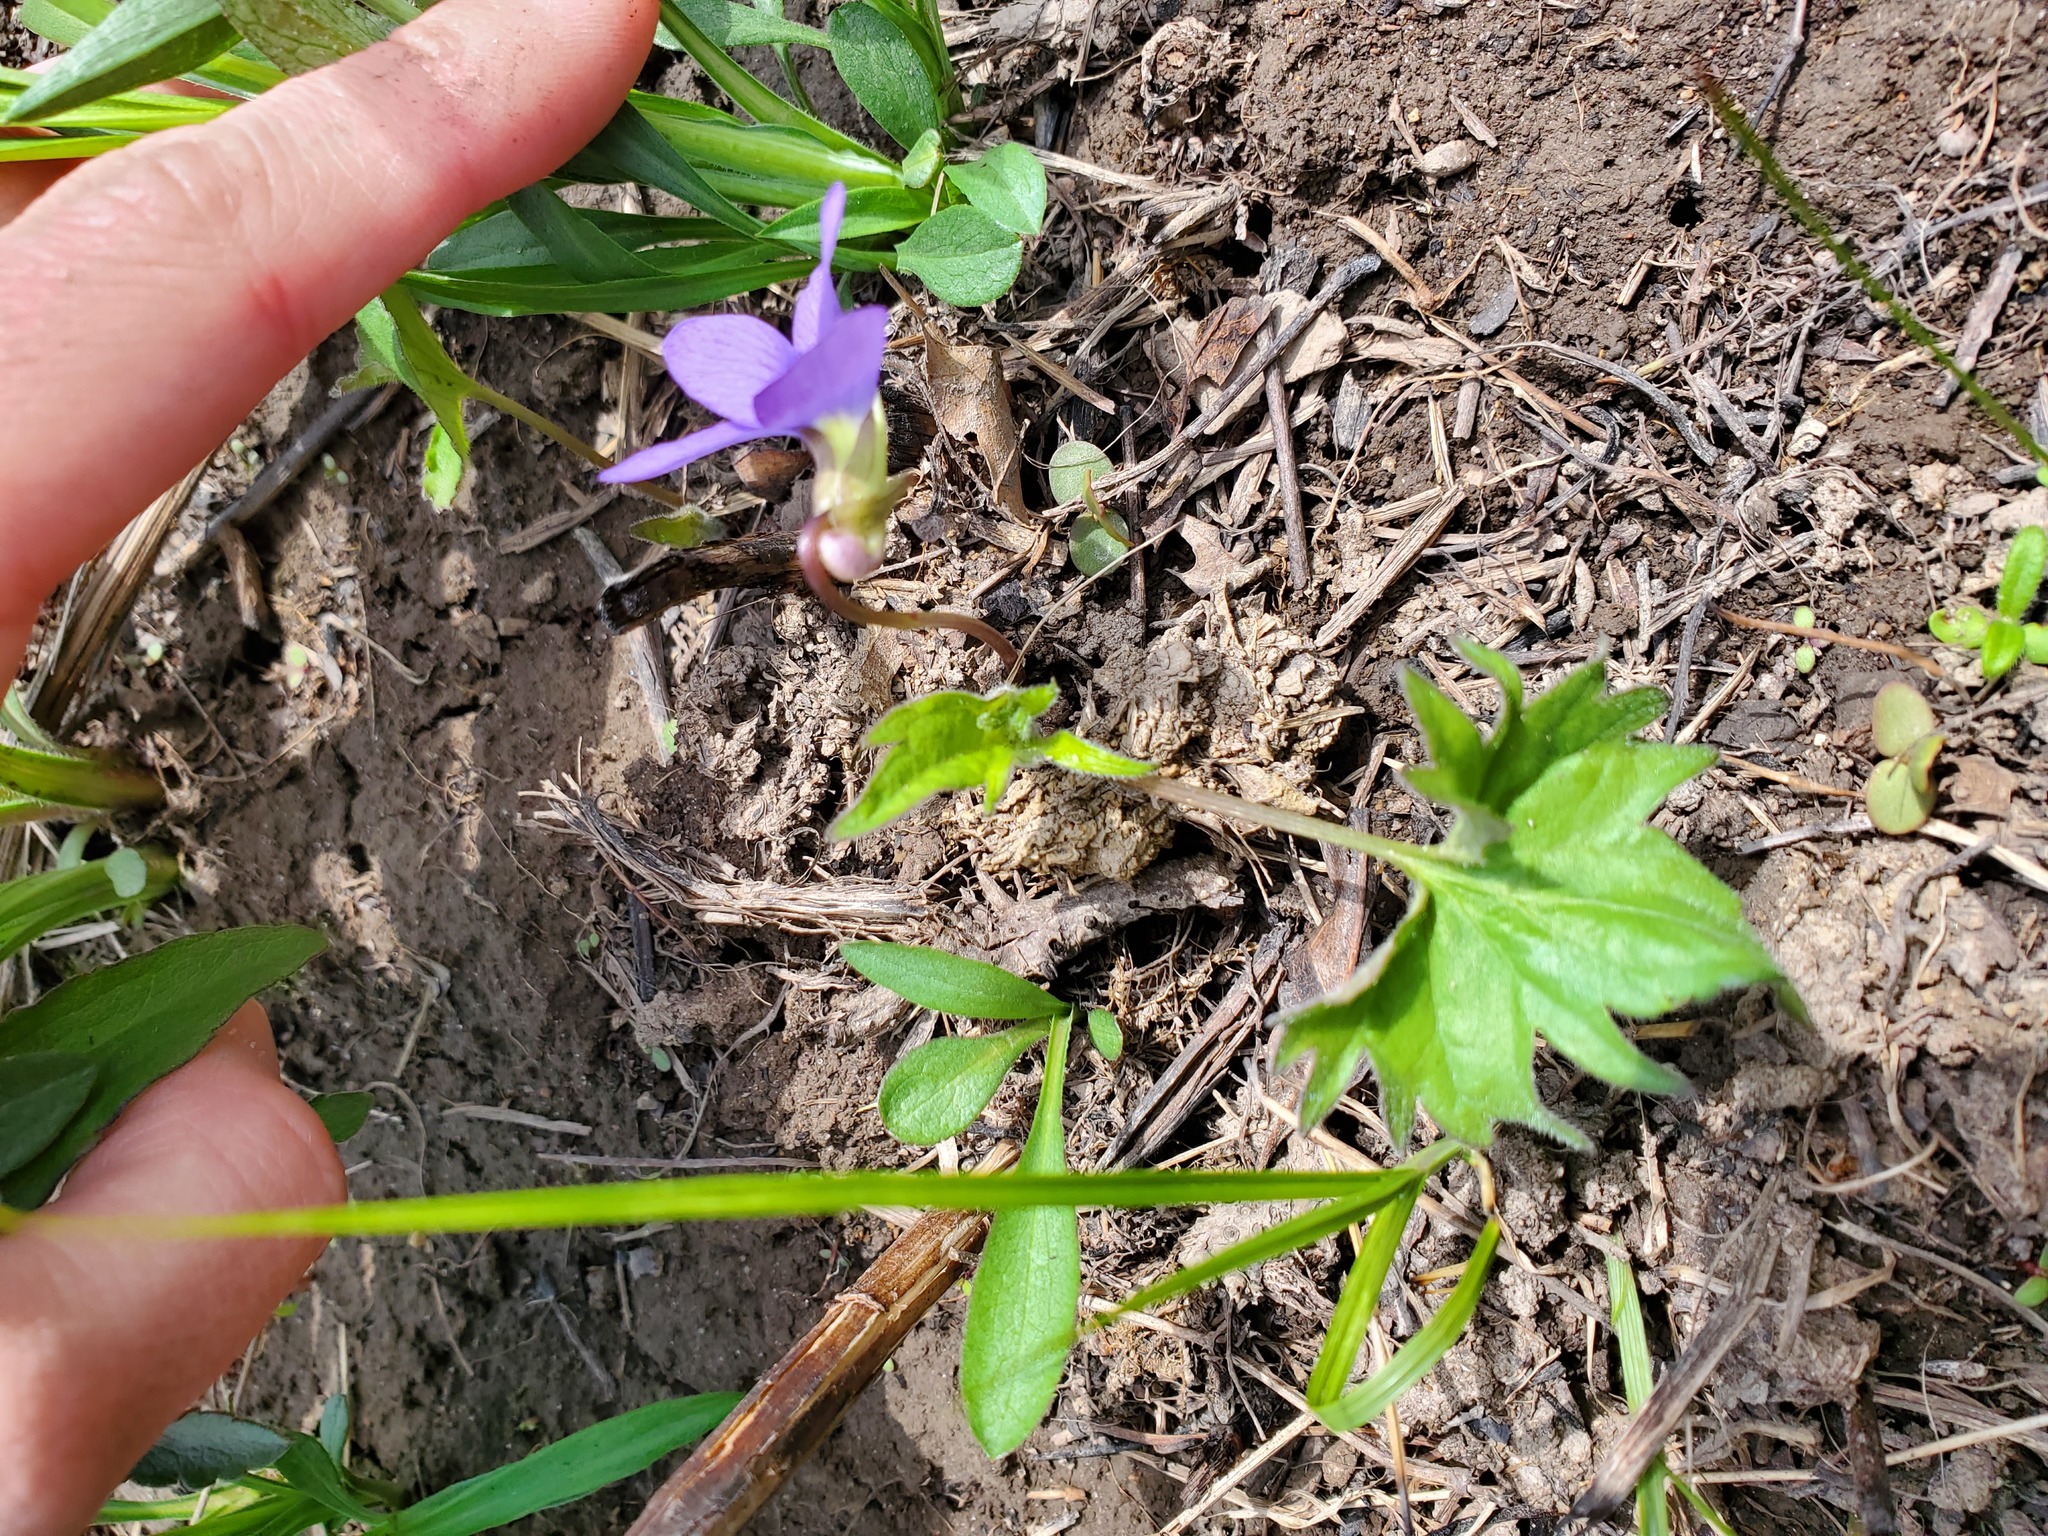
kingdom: Plantae
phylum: Tracheophyta
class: Magnoliopsida
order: Malpighiales
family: Violaceae
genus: Viola
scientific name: Viola subsinuata
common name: Wood violet
